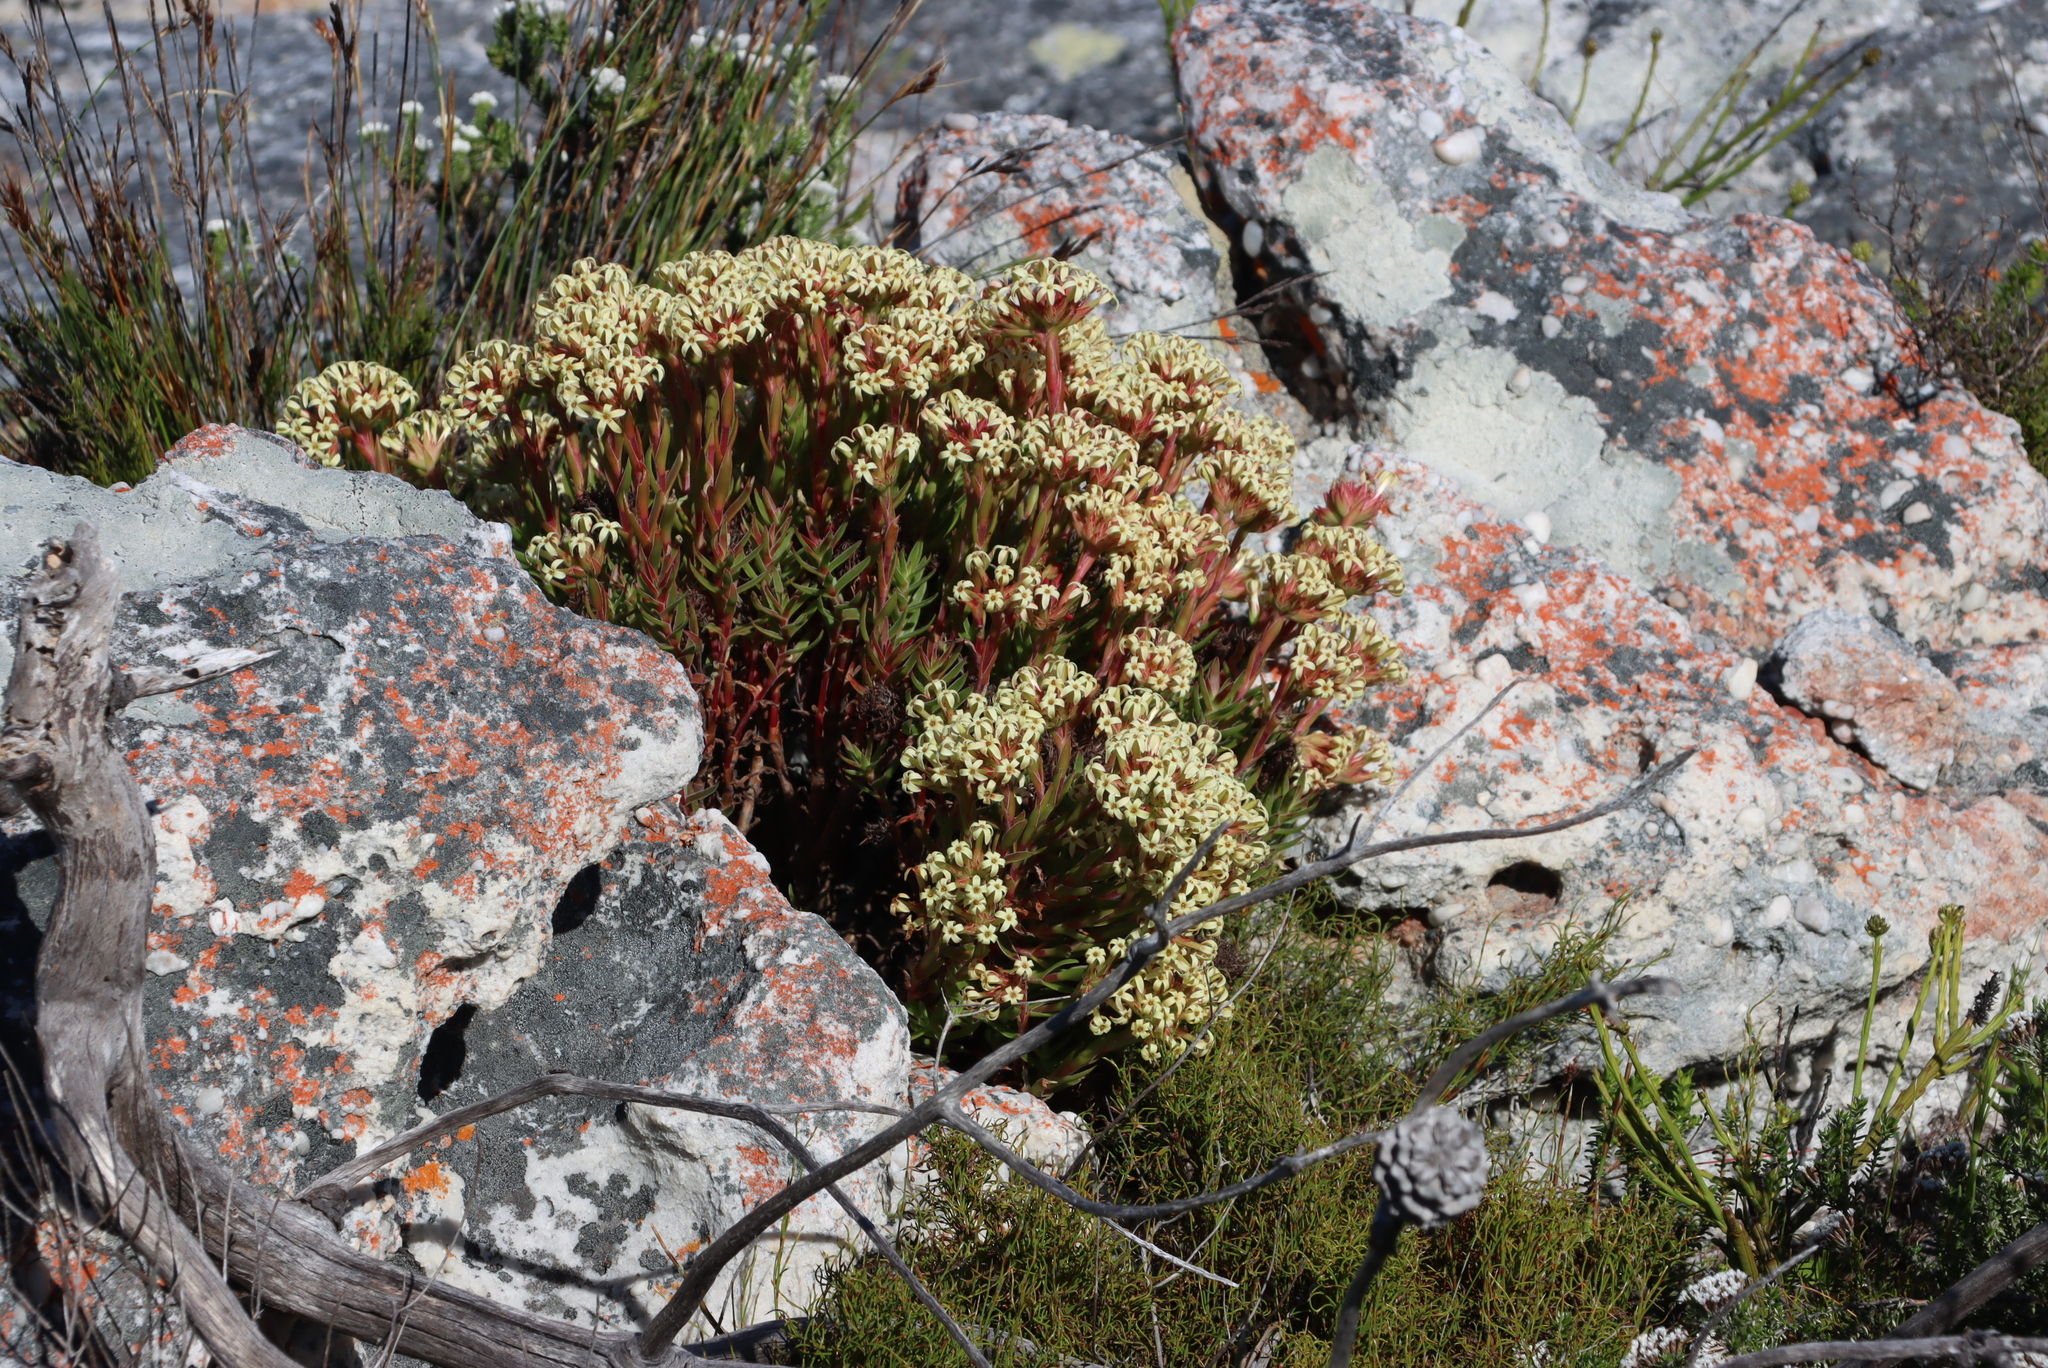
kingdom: Plantae
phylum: Tracheophyta
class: Magnoliopsida
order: Saxifragales
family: Crassulaceae
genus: Crassula
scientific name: Crassula fascicularis
